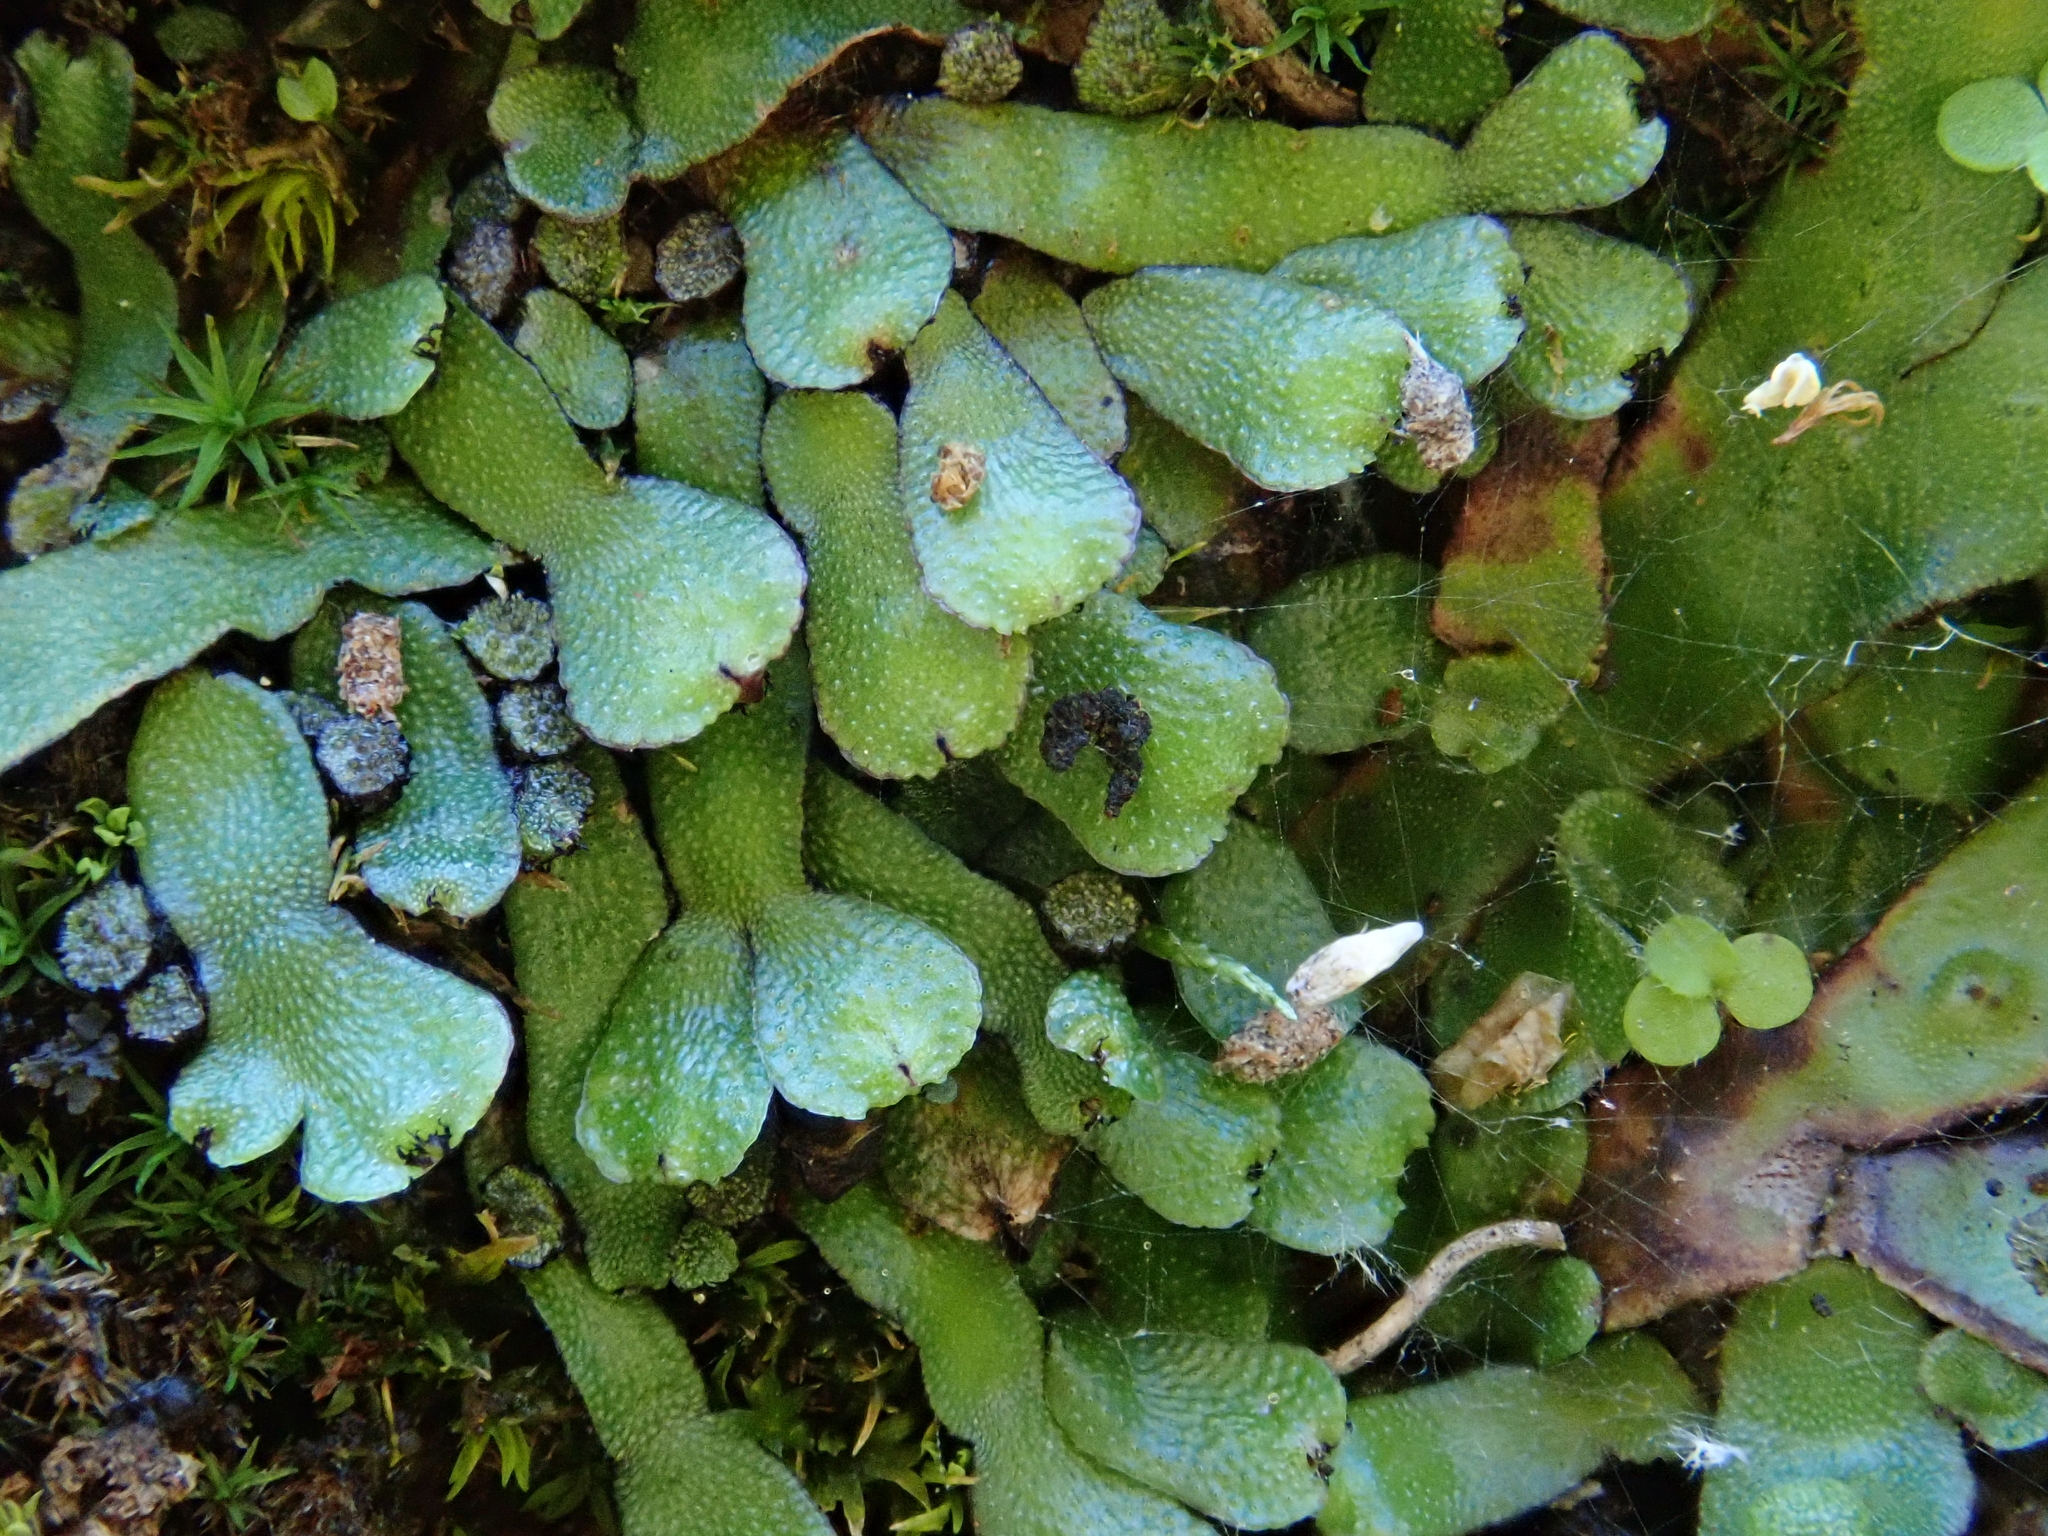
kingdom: Plantae
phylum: Marchantiophyta
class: Marchantiopsida
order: Marchantiales
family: Targioniaceae
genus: Targionia
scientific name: Targionia hypophylla
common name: Orobus-seed liverwort
